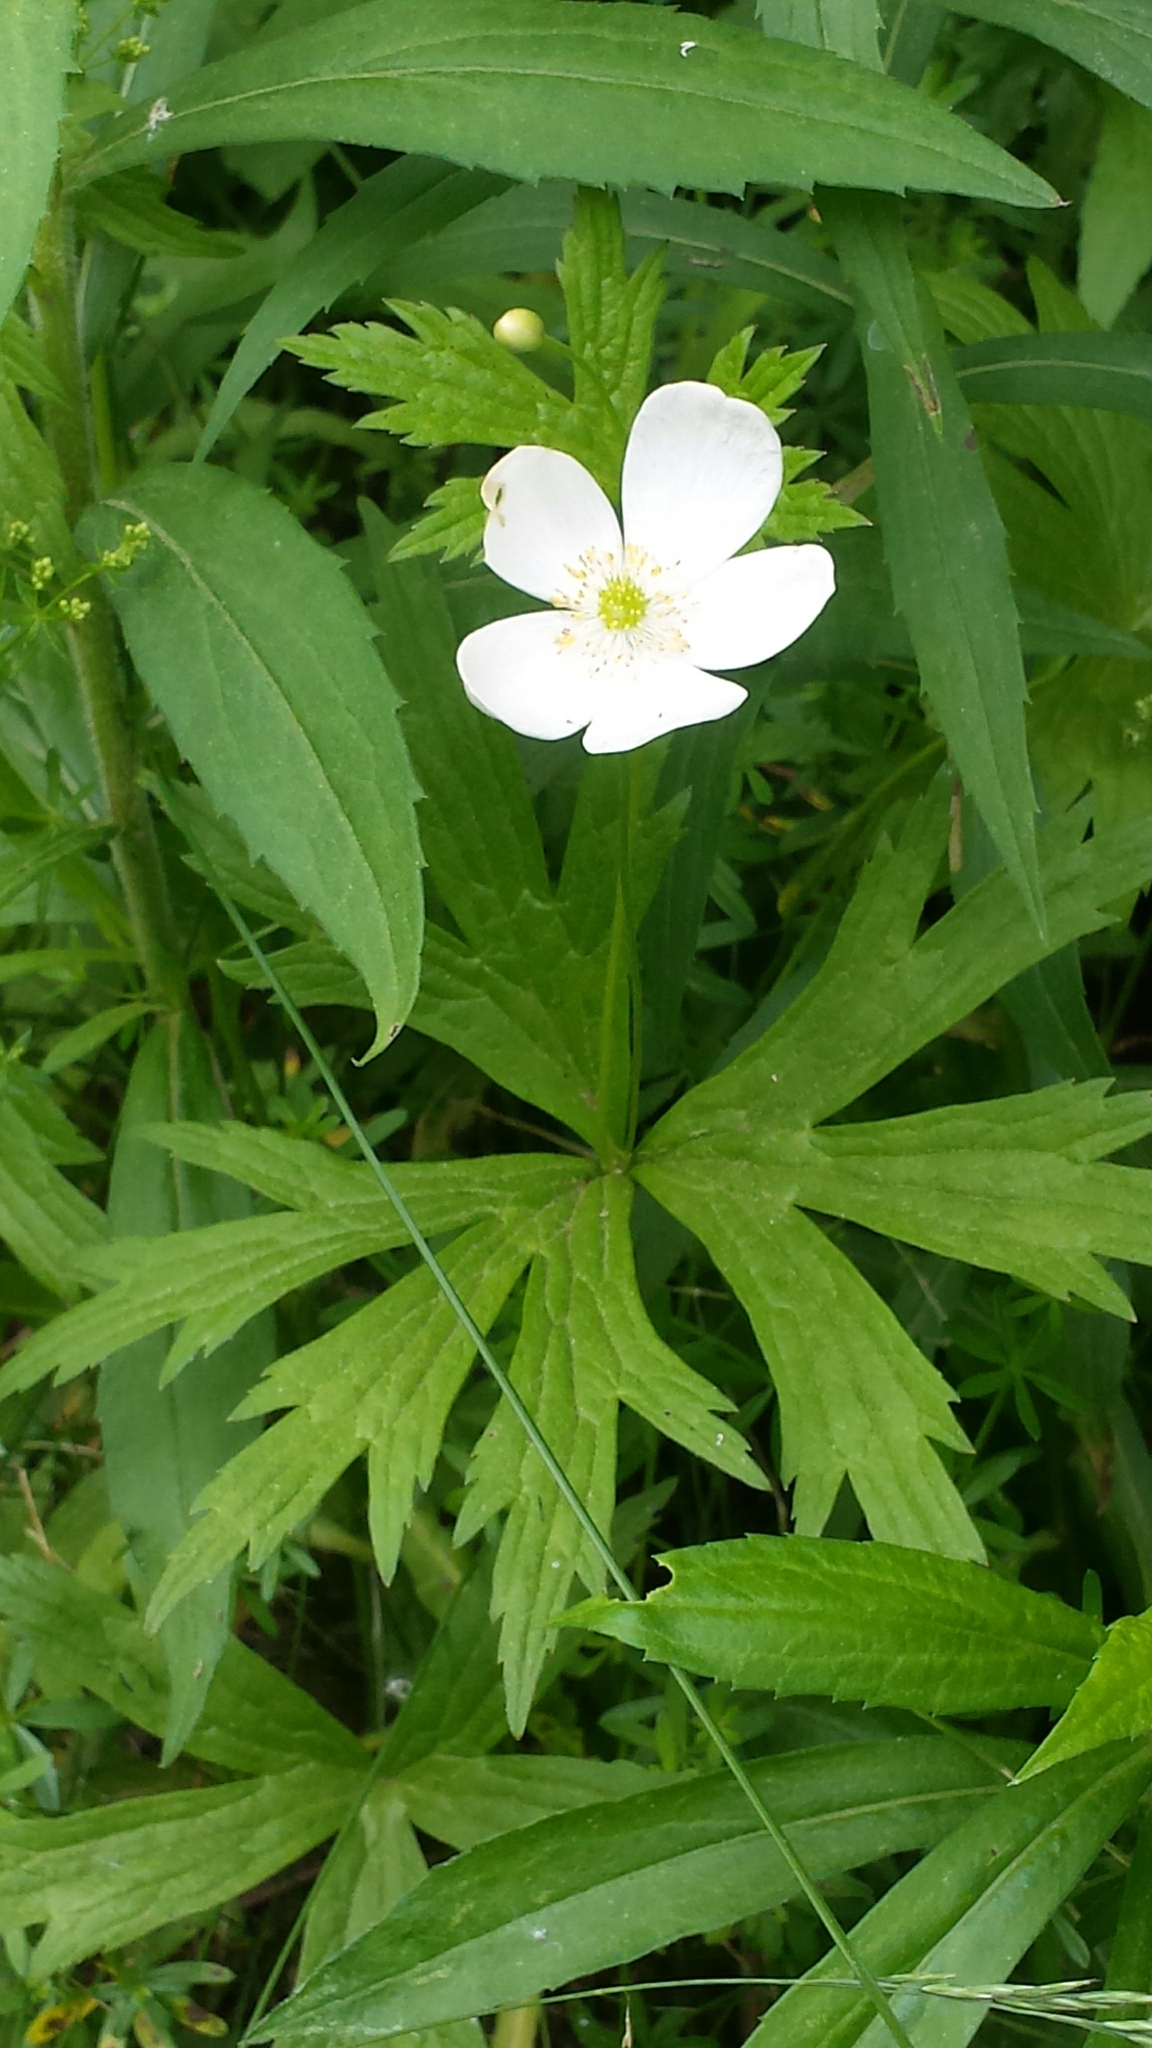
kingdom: Plantae
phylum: Tracheophyta
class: Magnoliopsida
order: Ranunculales
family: Ranunculaceae
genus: Anemonastrum
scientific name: Anemonastrum canadense
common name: Canada anemone
